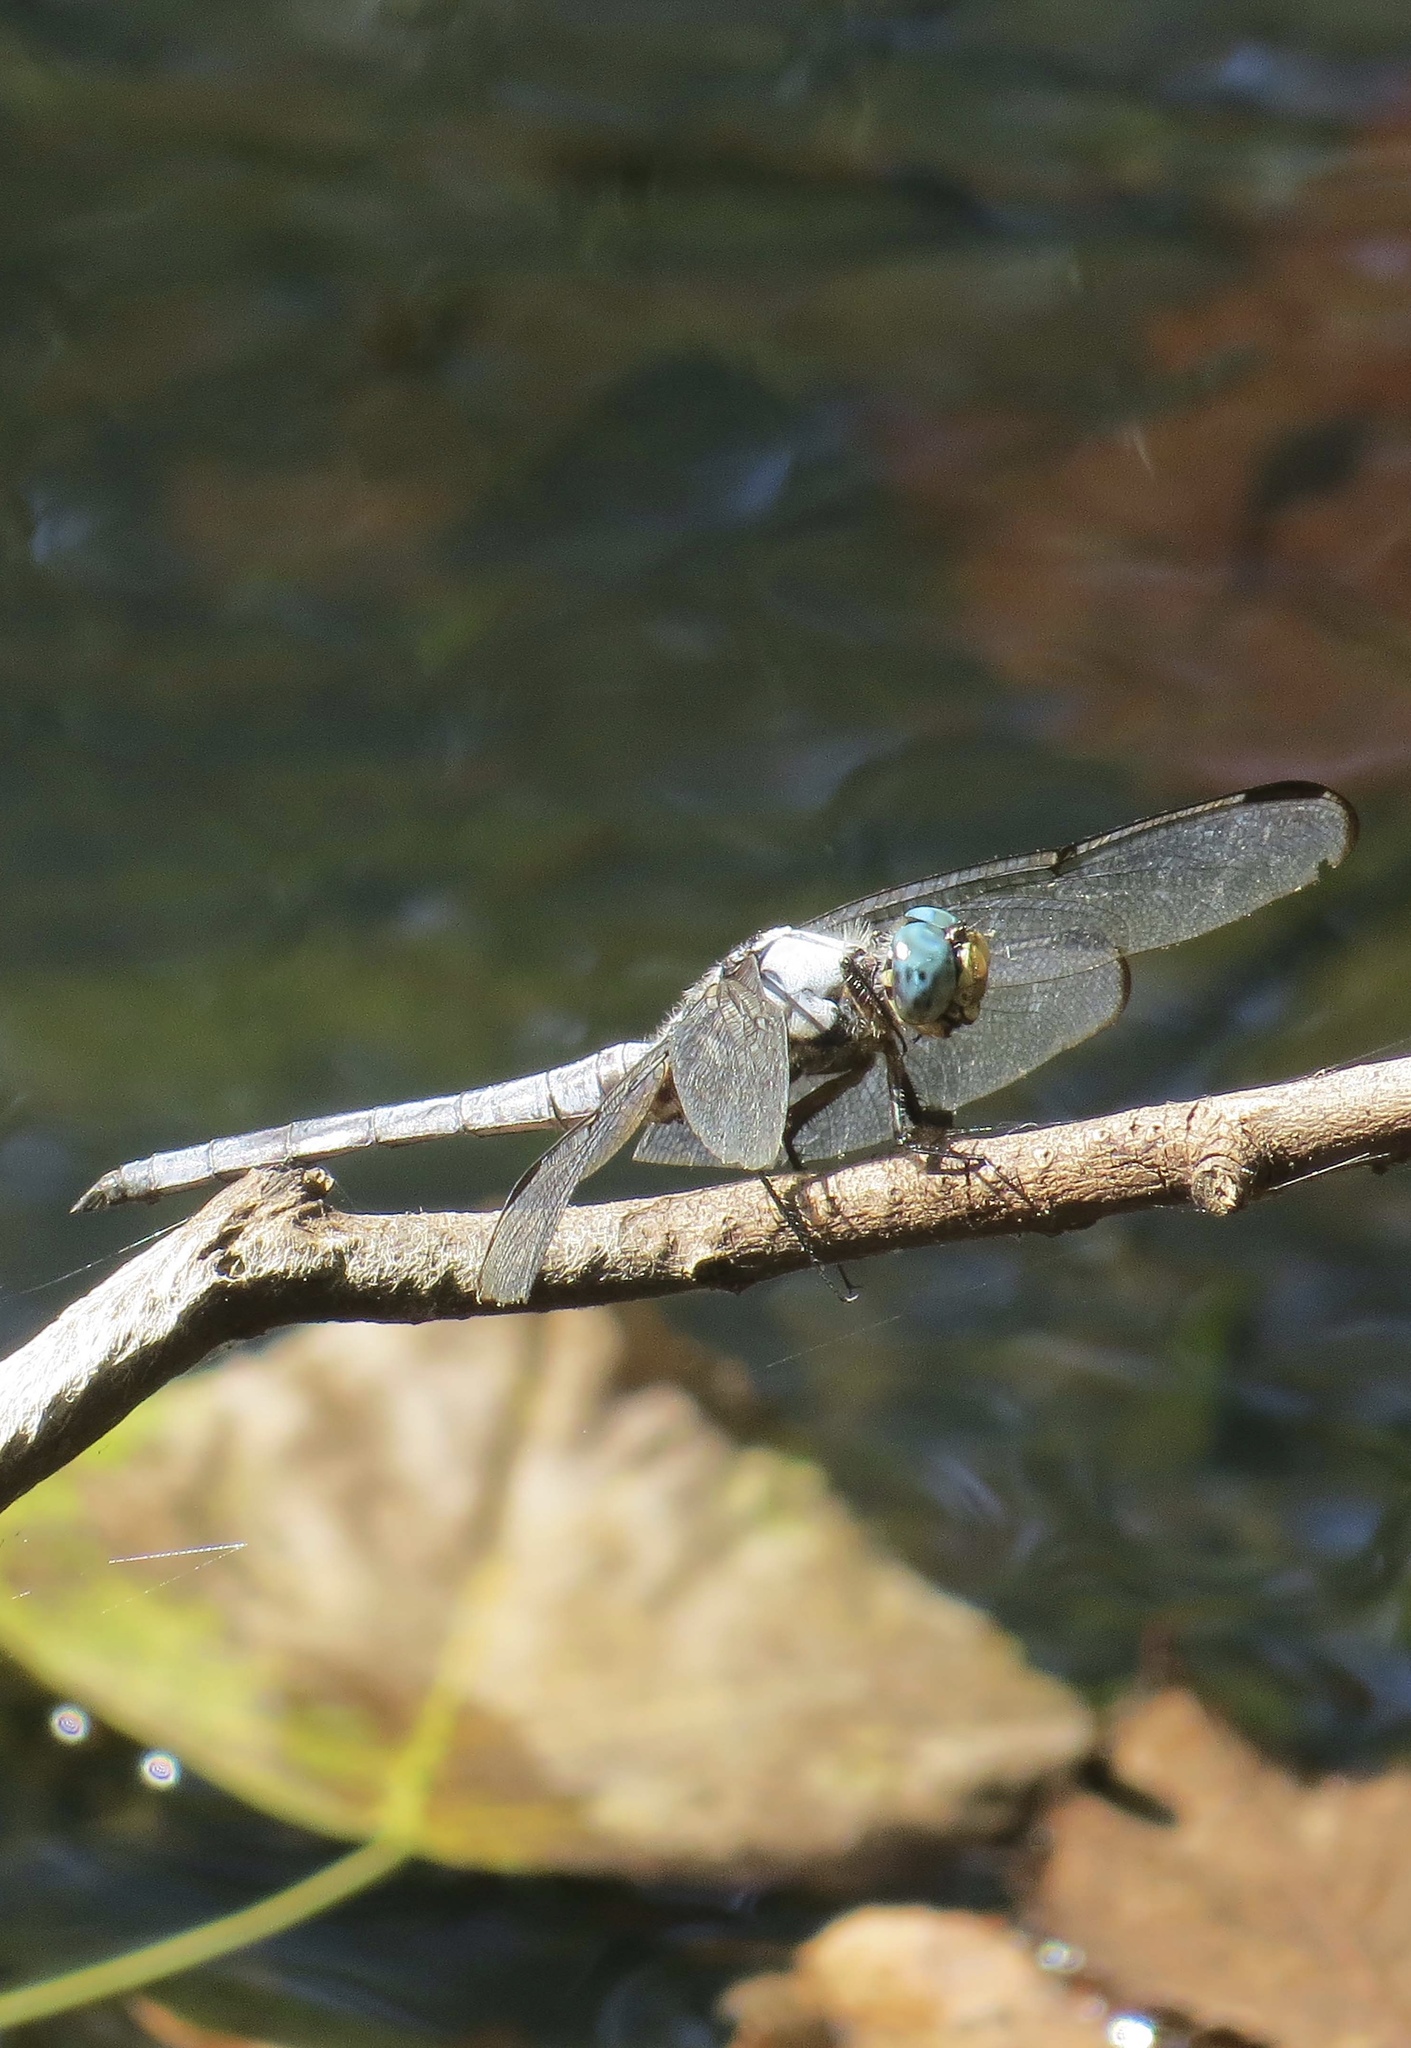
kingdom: Animalia
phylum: Arthropoda
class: Insecta
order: Odonata
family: Libellulidae
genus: Libellula
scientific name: Libellula vibrans
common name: Great blue skimmer
